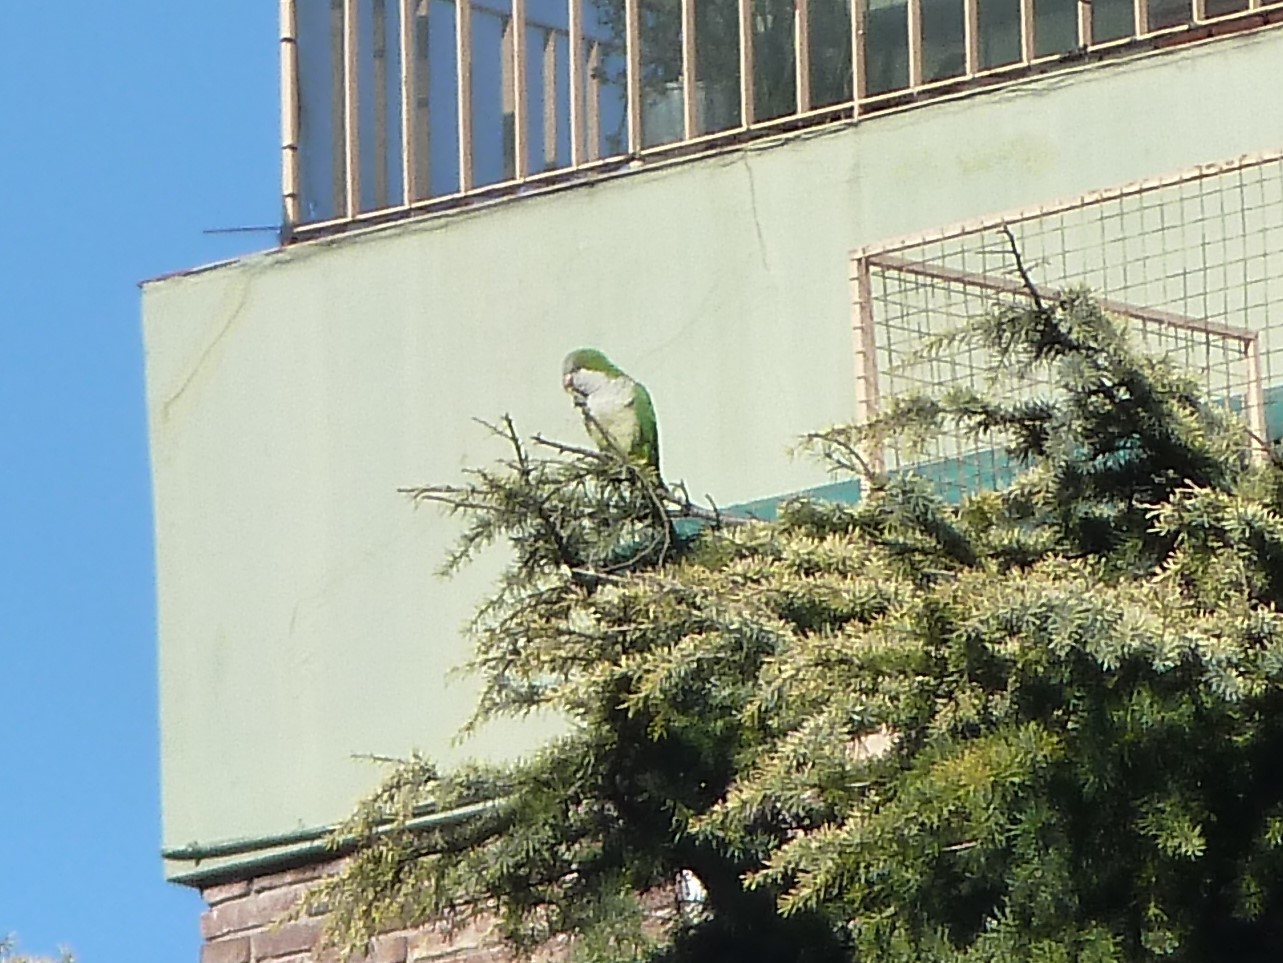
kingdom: Animalia
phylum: Chordata
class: Aves
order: Psittaciformes
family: Psittacidae
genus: Myiopsitta
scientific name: Myiopsitta monachus
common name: Monk parakeet
